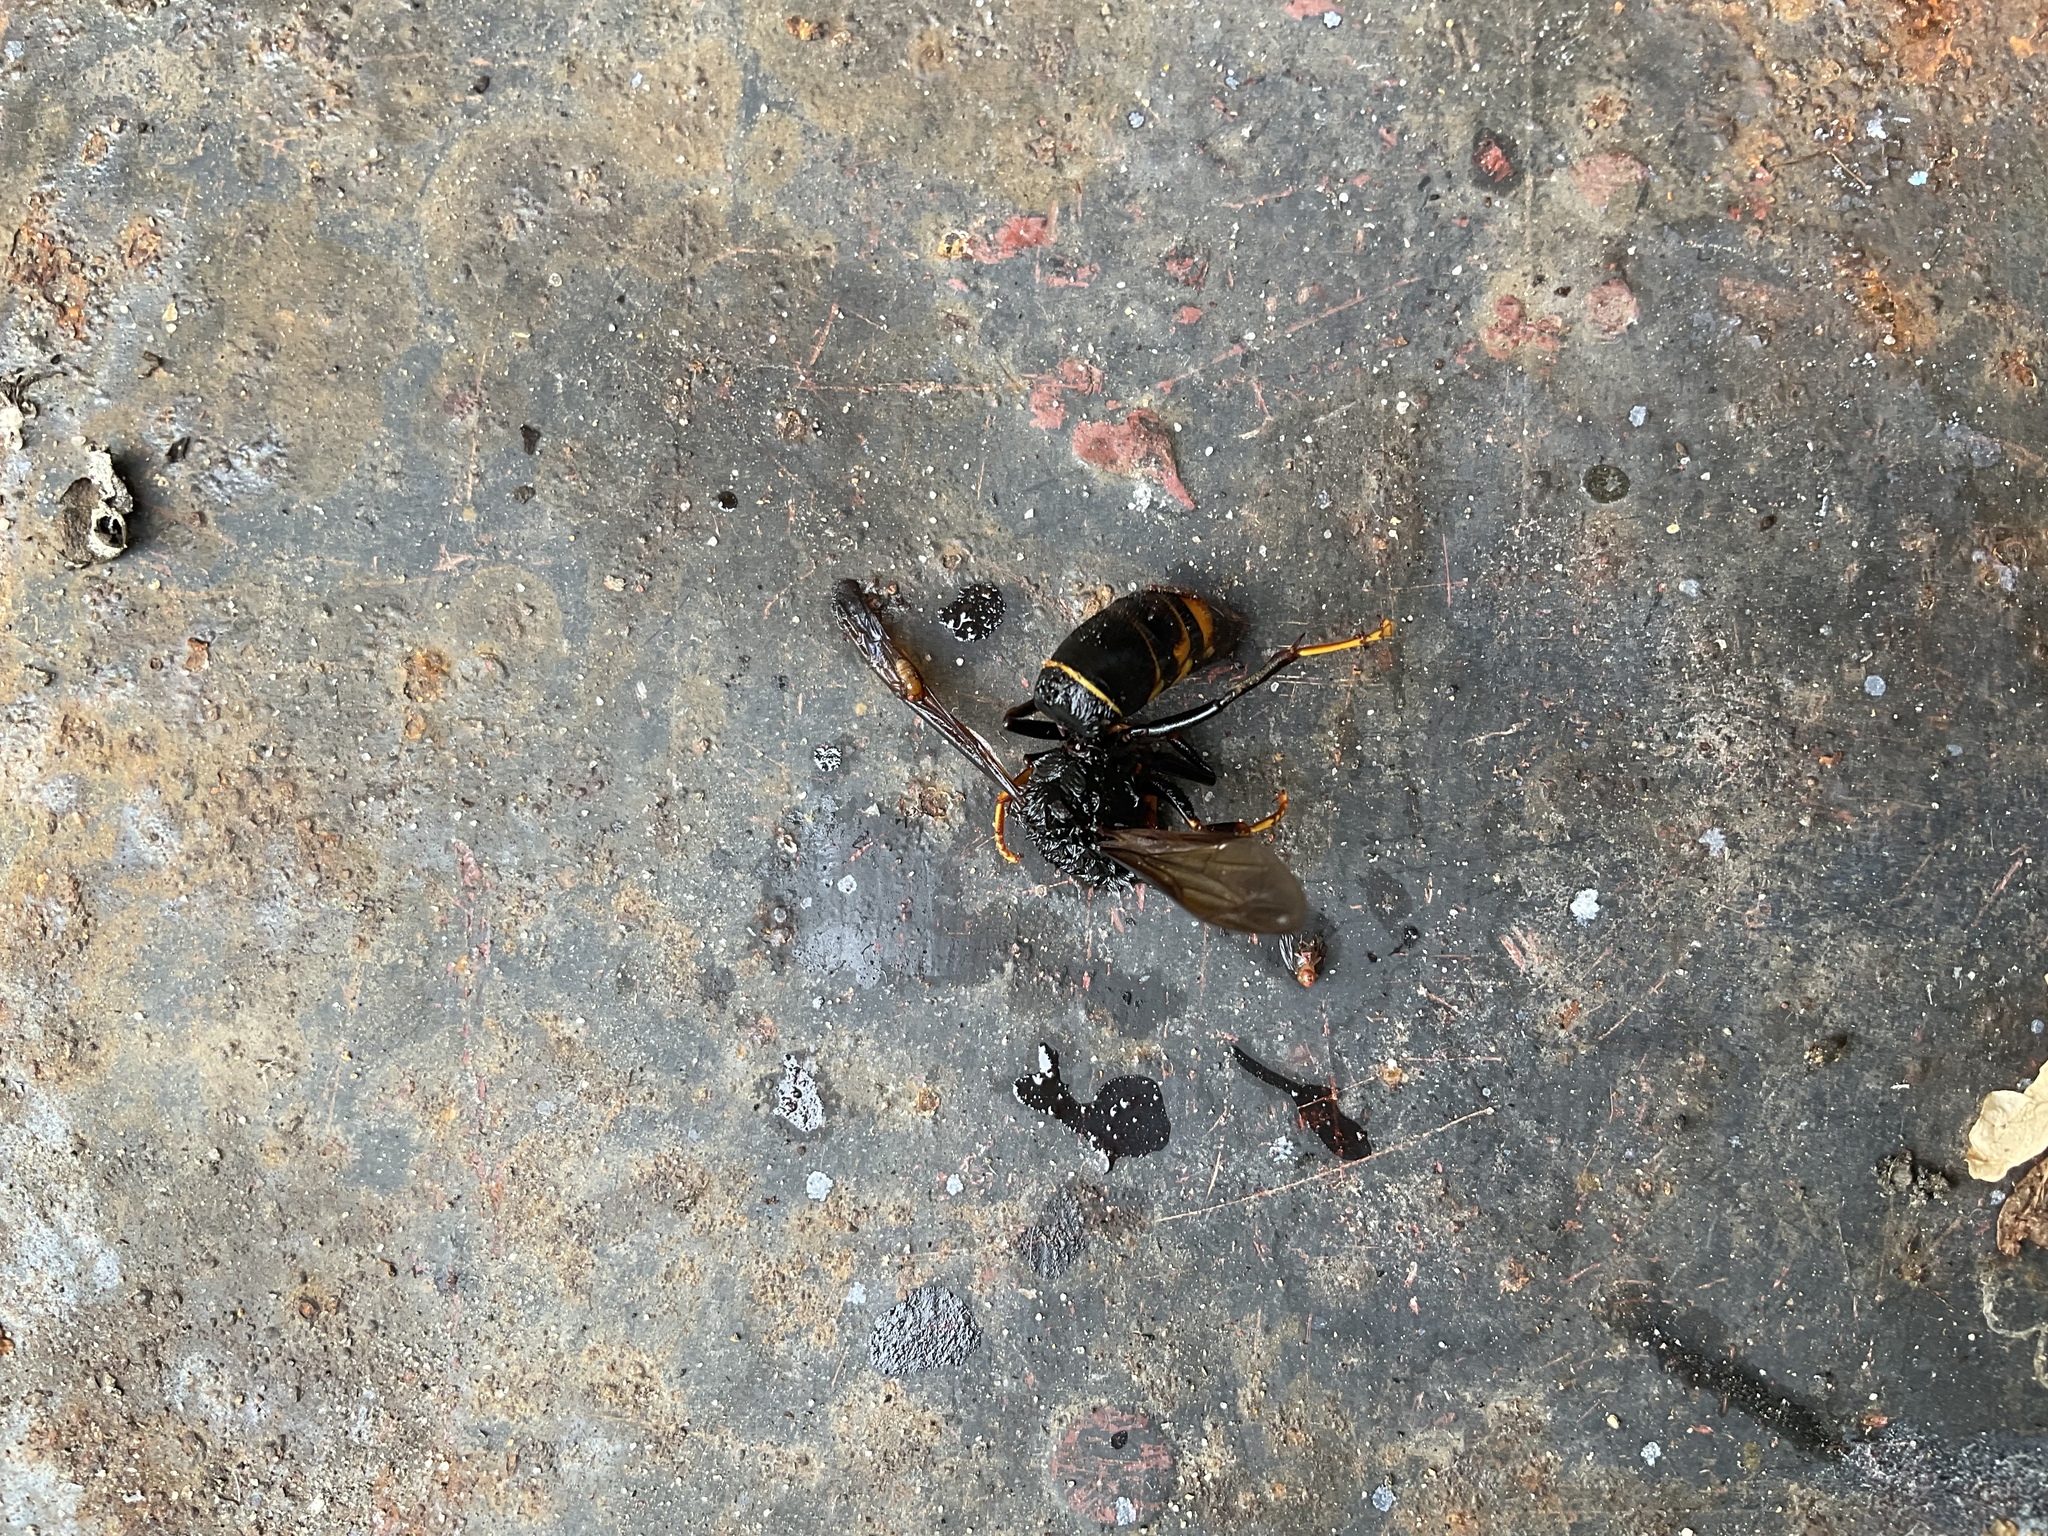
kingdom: Animalia
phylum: Arthropoda
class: Insecta
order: Hymenoptera
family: Vespidae
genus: Vespa
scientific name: Vespa velutina
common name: Asian hornet
